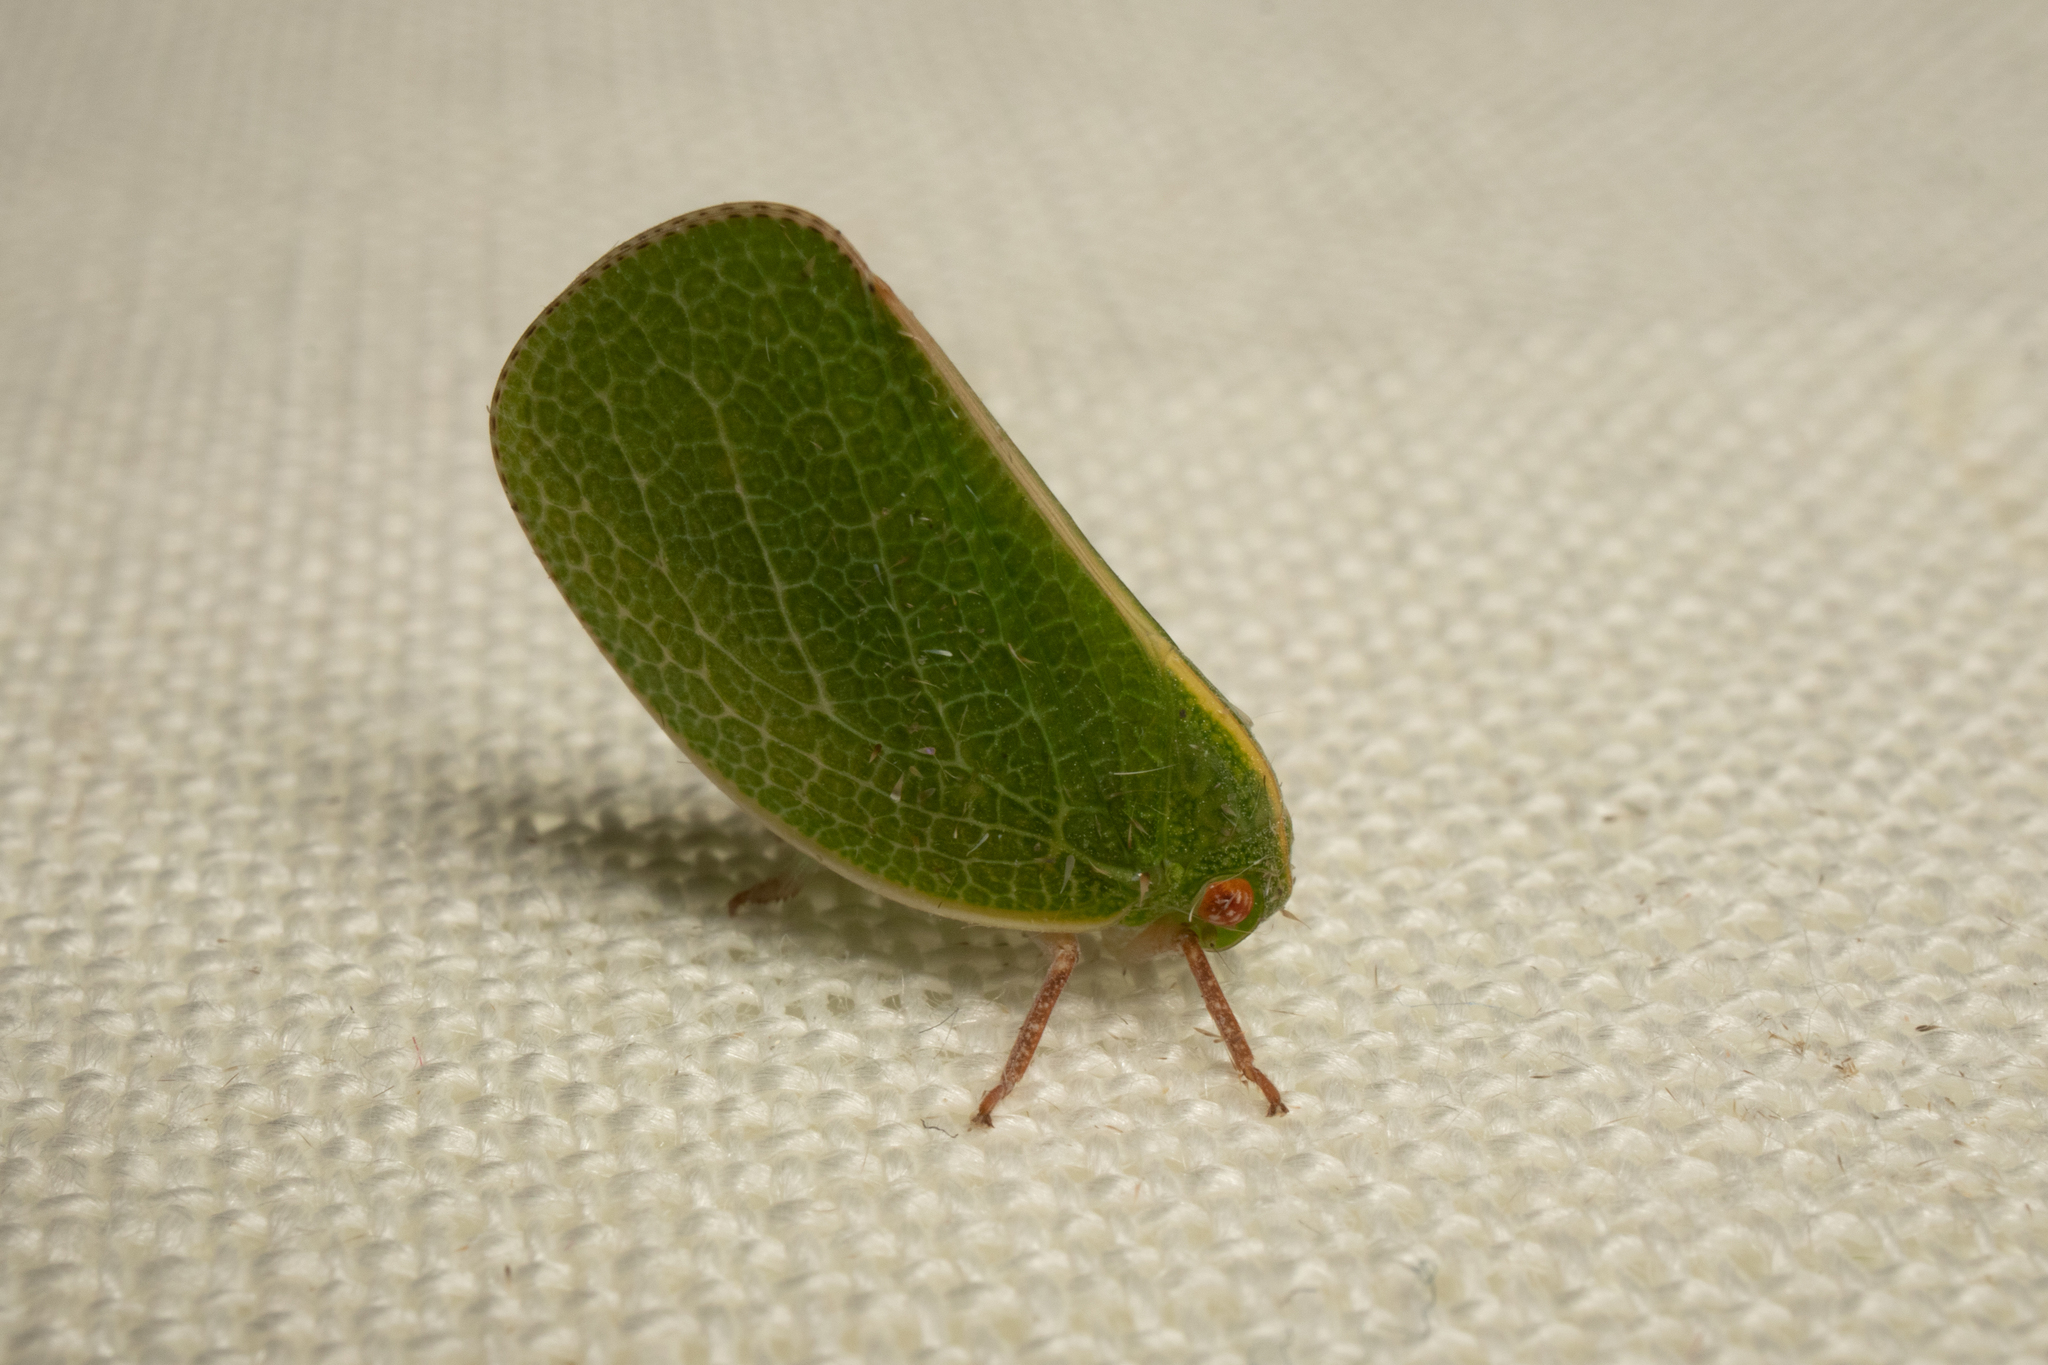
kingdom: Animalia
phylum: Arthropoda
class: Insecta
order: Hemiptera
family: Acanaloniidae
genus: Acanalonia
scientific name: Acanalonia servillei
